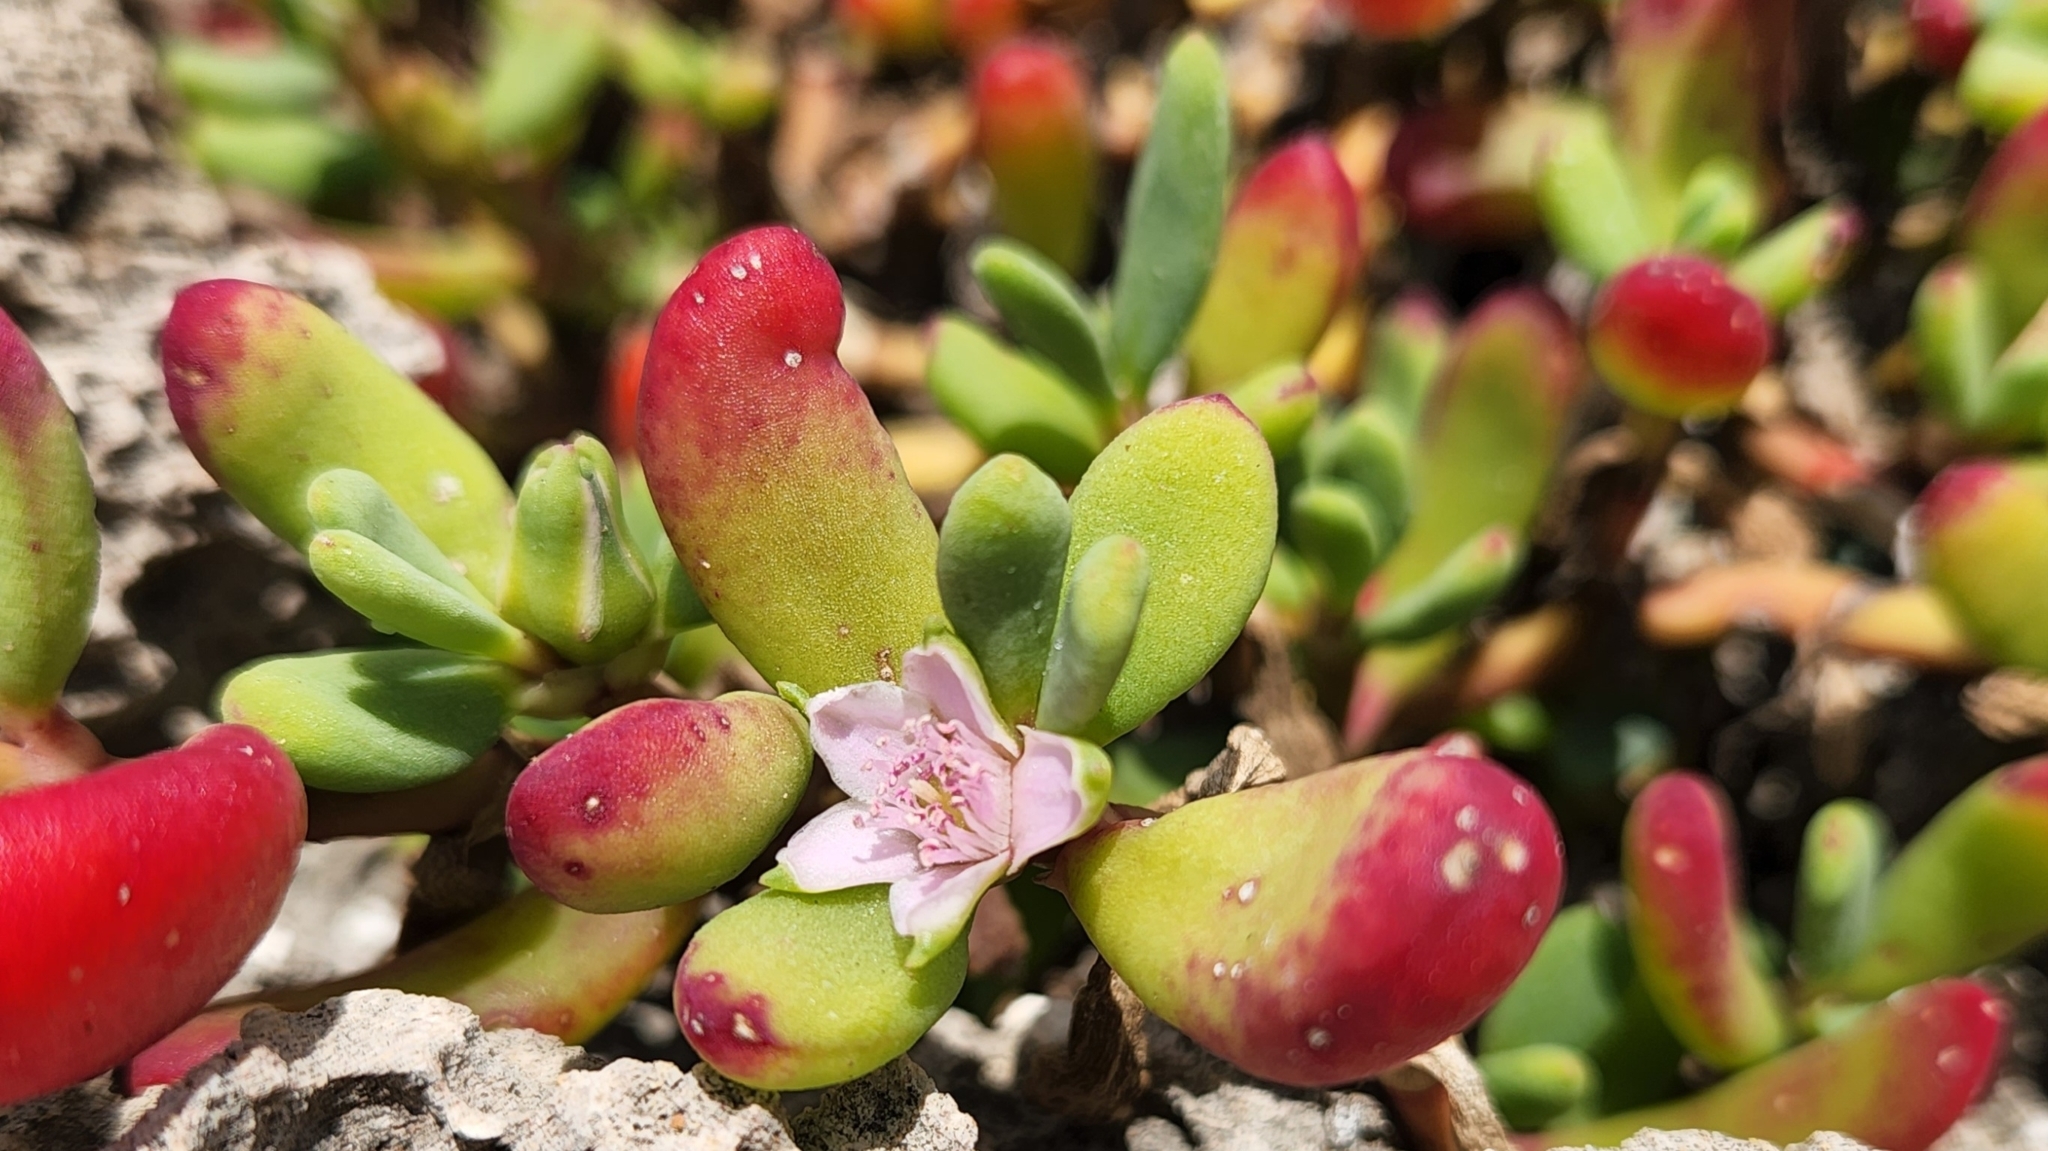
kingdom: Plantae
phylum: Tracheophyta
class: Magnoliopsida
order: Caryophyllales
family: Aizoaceae
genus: Sesuvium
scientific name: Sesuvium portulacastrum
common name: Sea-purslane
